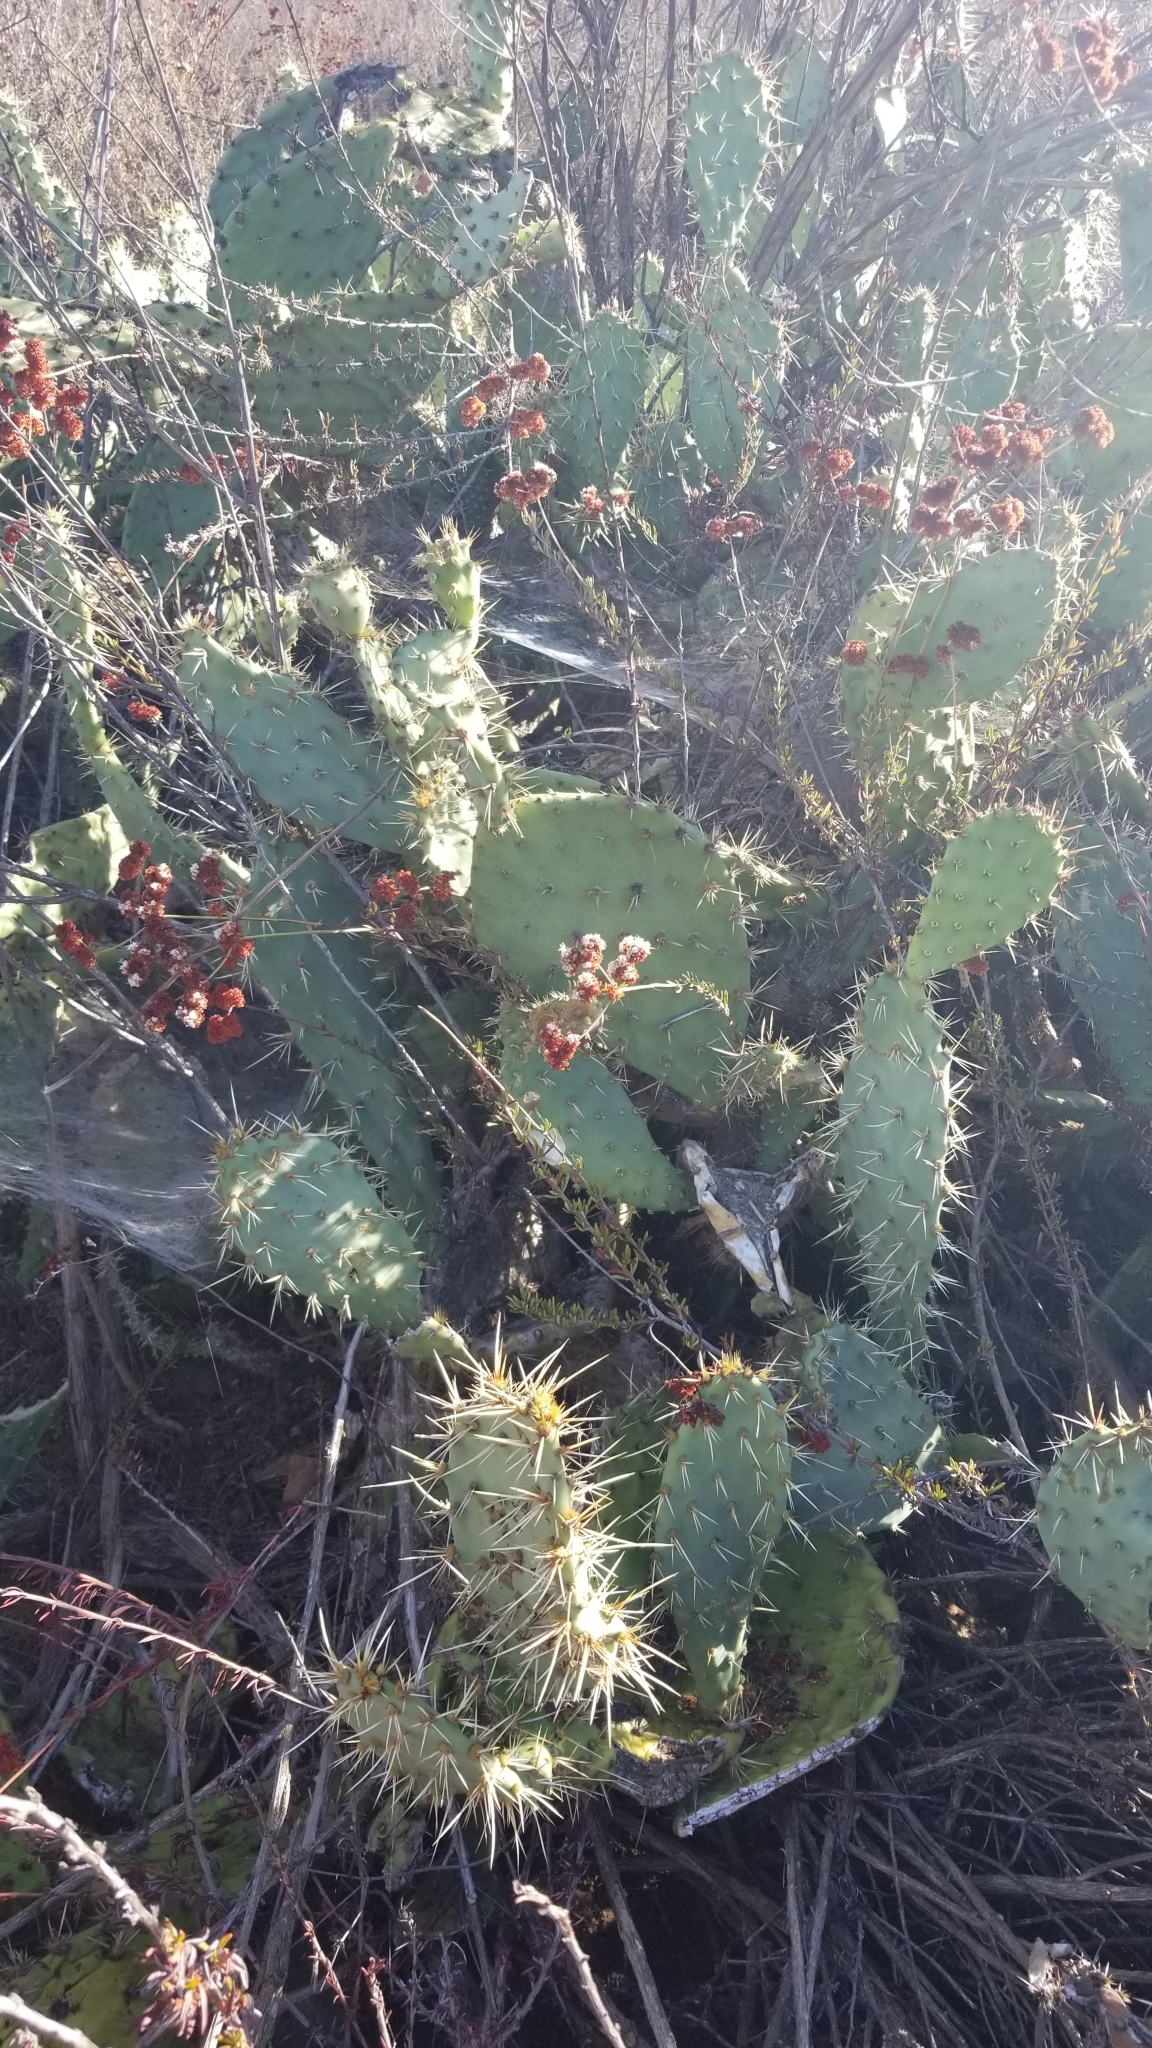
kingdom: Plantae
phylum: Tracheophyta
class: Magnoliopsida
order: Caryophyllales
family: Cactaceae
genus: Opuntia
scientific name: Opuntia littoralis
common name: Coastal prickly-pear
